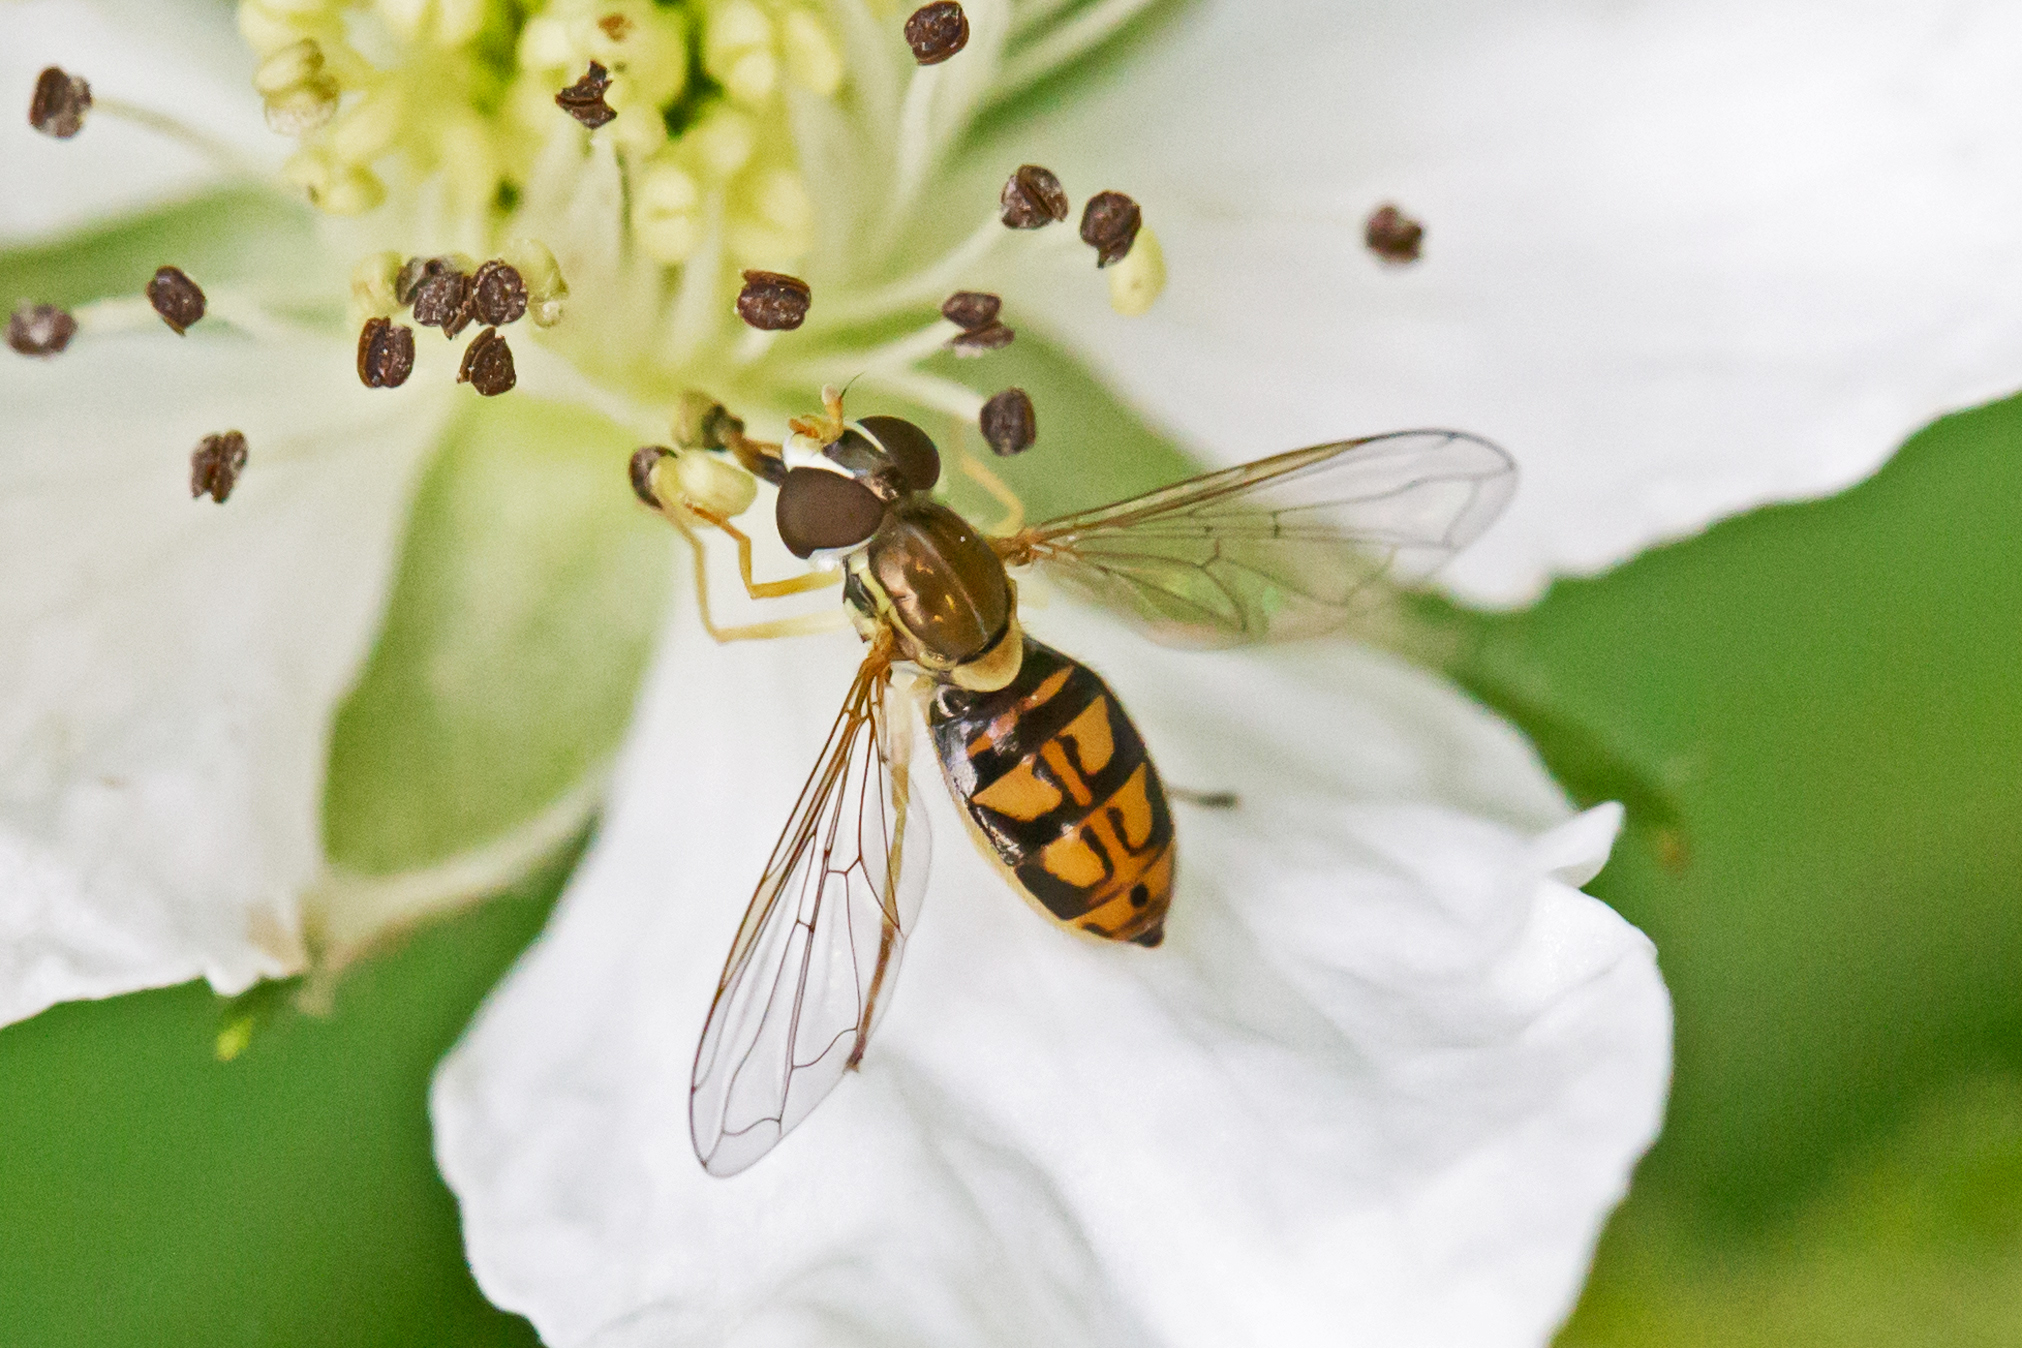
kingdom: Animalia
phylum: Arthropoda
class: Insecta
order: Diptera
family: Syrphidae
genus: Toxomerus
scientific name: Toxomerus marginatus
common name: Syrphid fly
